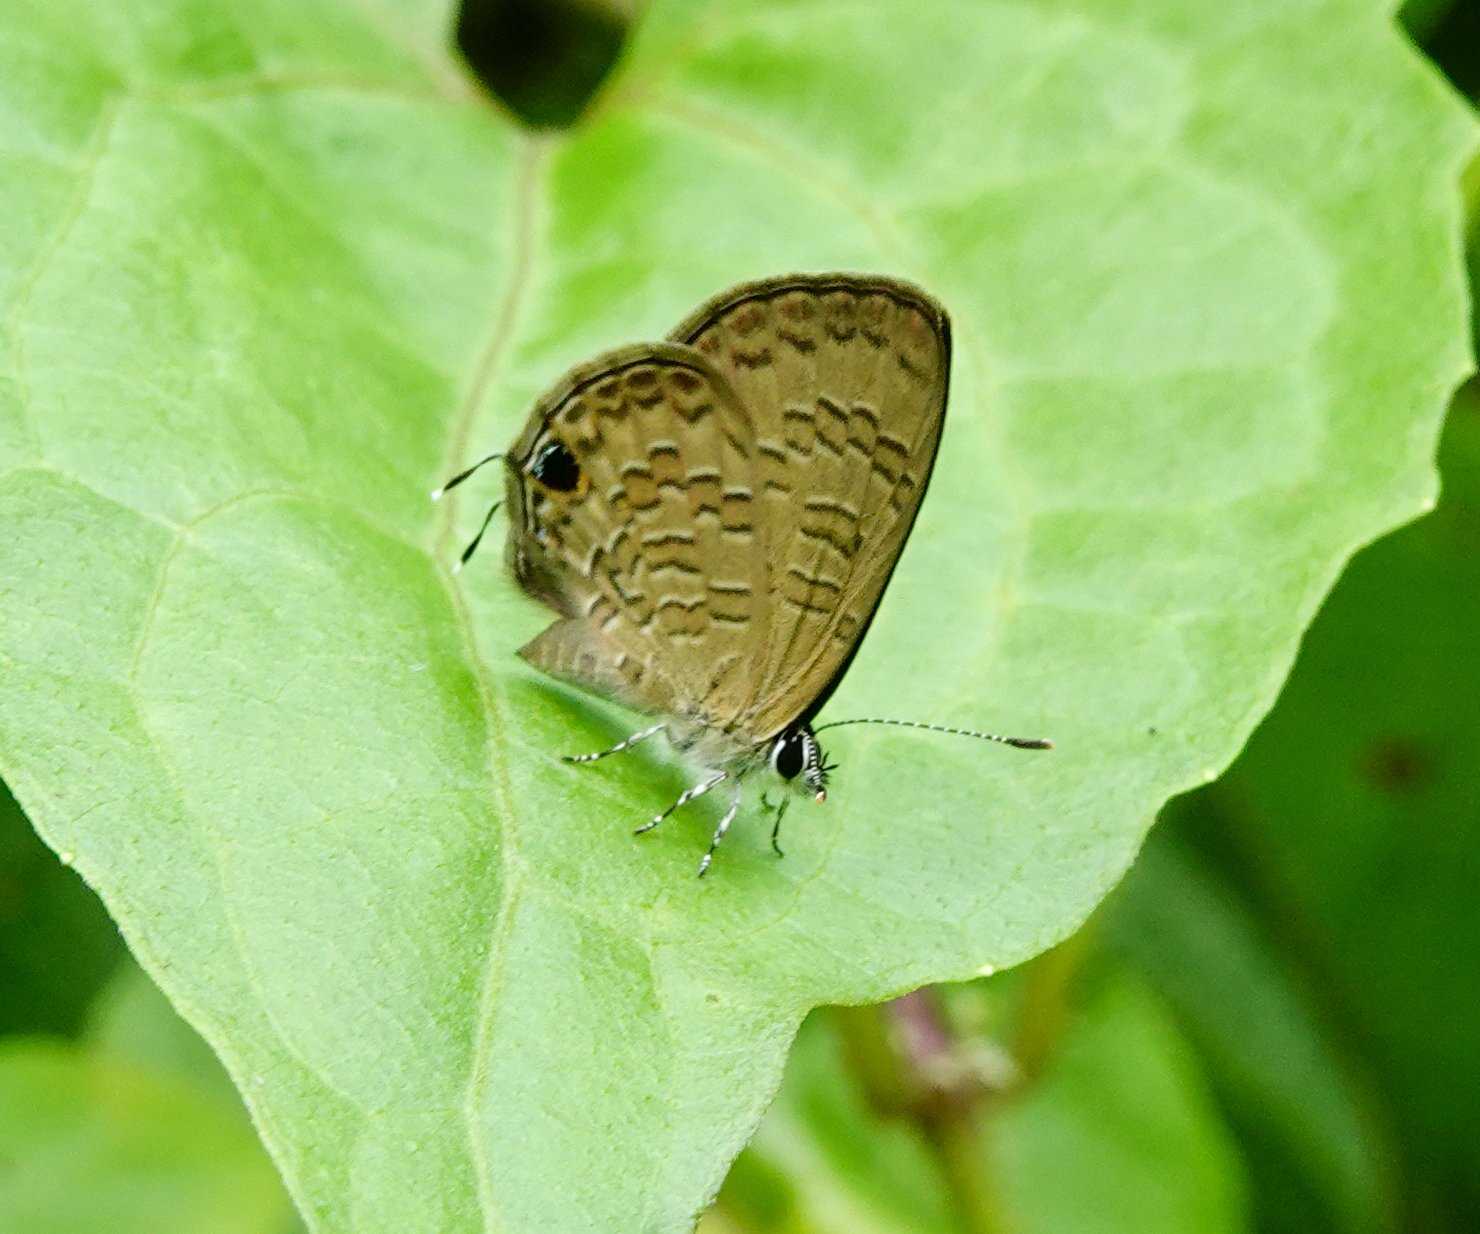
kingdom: Animalia
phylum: Arthropoda
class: Insecta
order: Lepidoptera
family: Lycaenidae
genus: Prosotas
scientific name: Prosotas nora
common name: Common line blue
